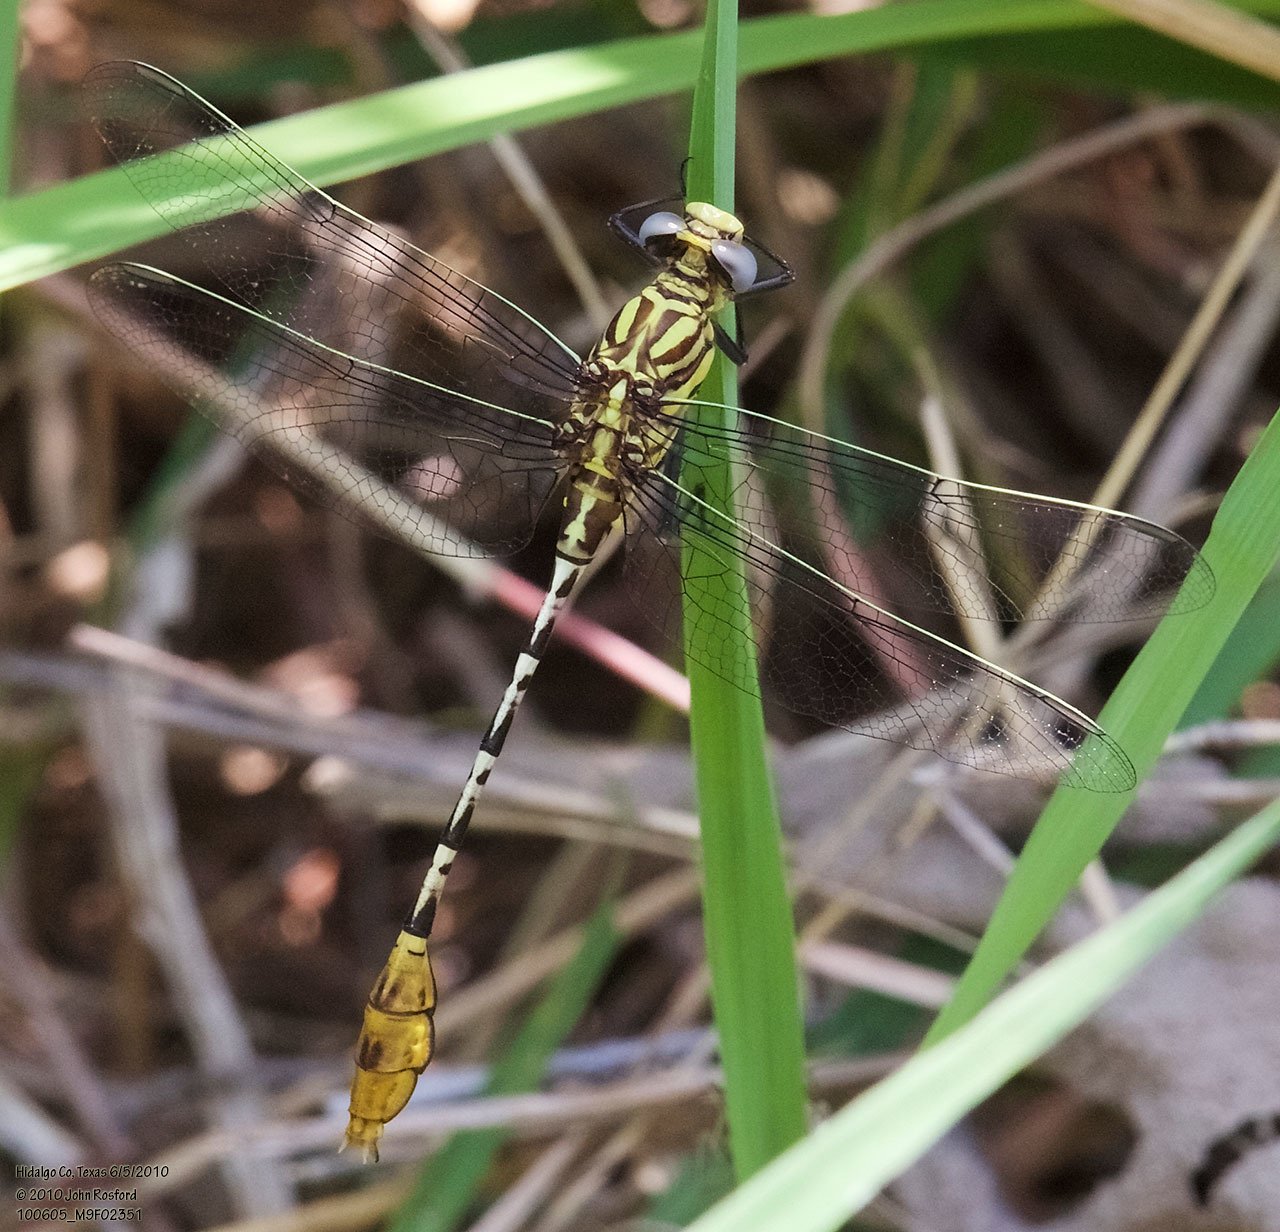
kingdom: Animalia
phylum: Arthropoda
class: Insecta
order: Odonata
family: Gomphidae
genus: Dromogomphus
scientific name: Dromogomphus spoliatus
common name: Flag-tailed spinyleg
